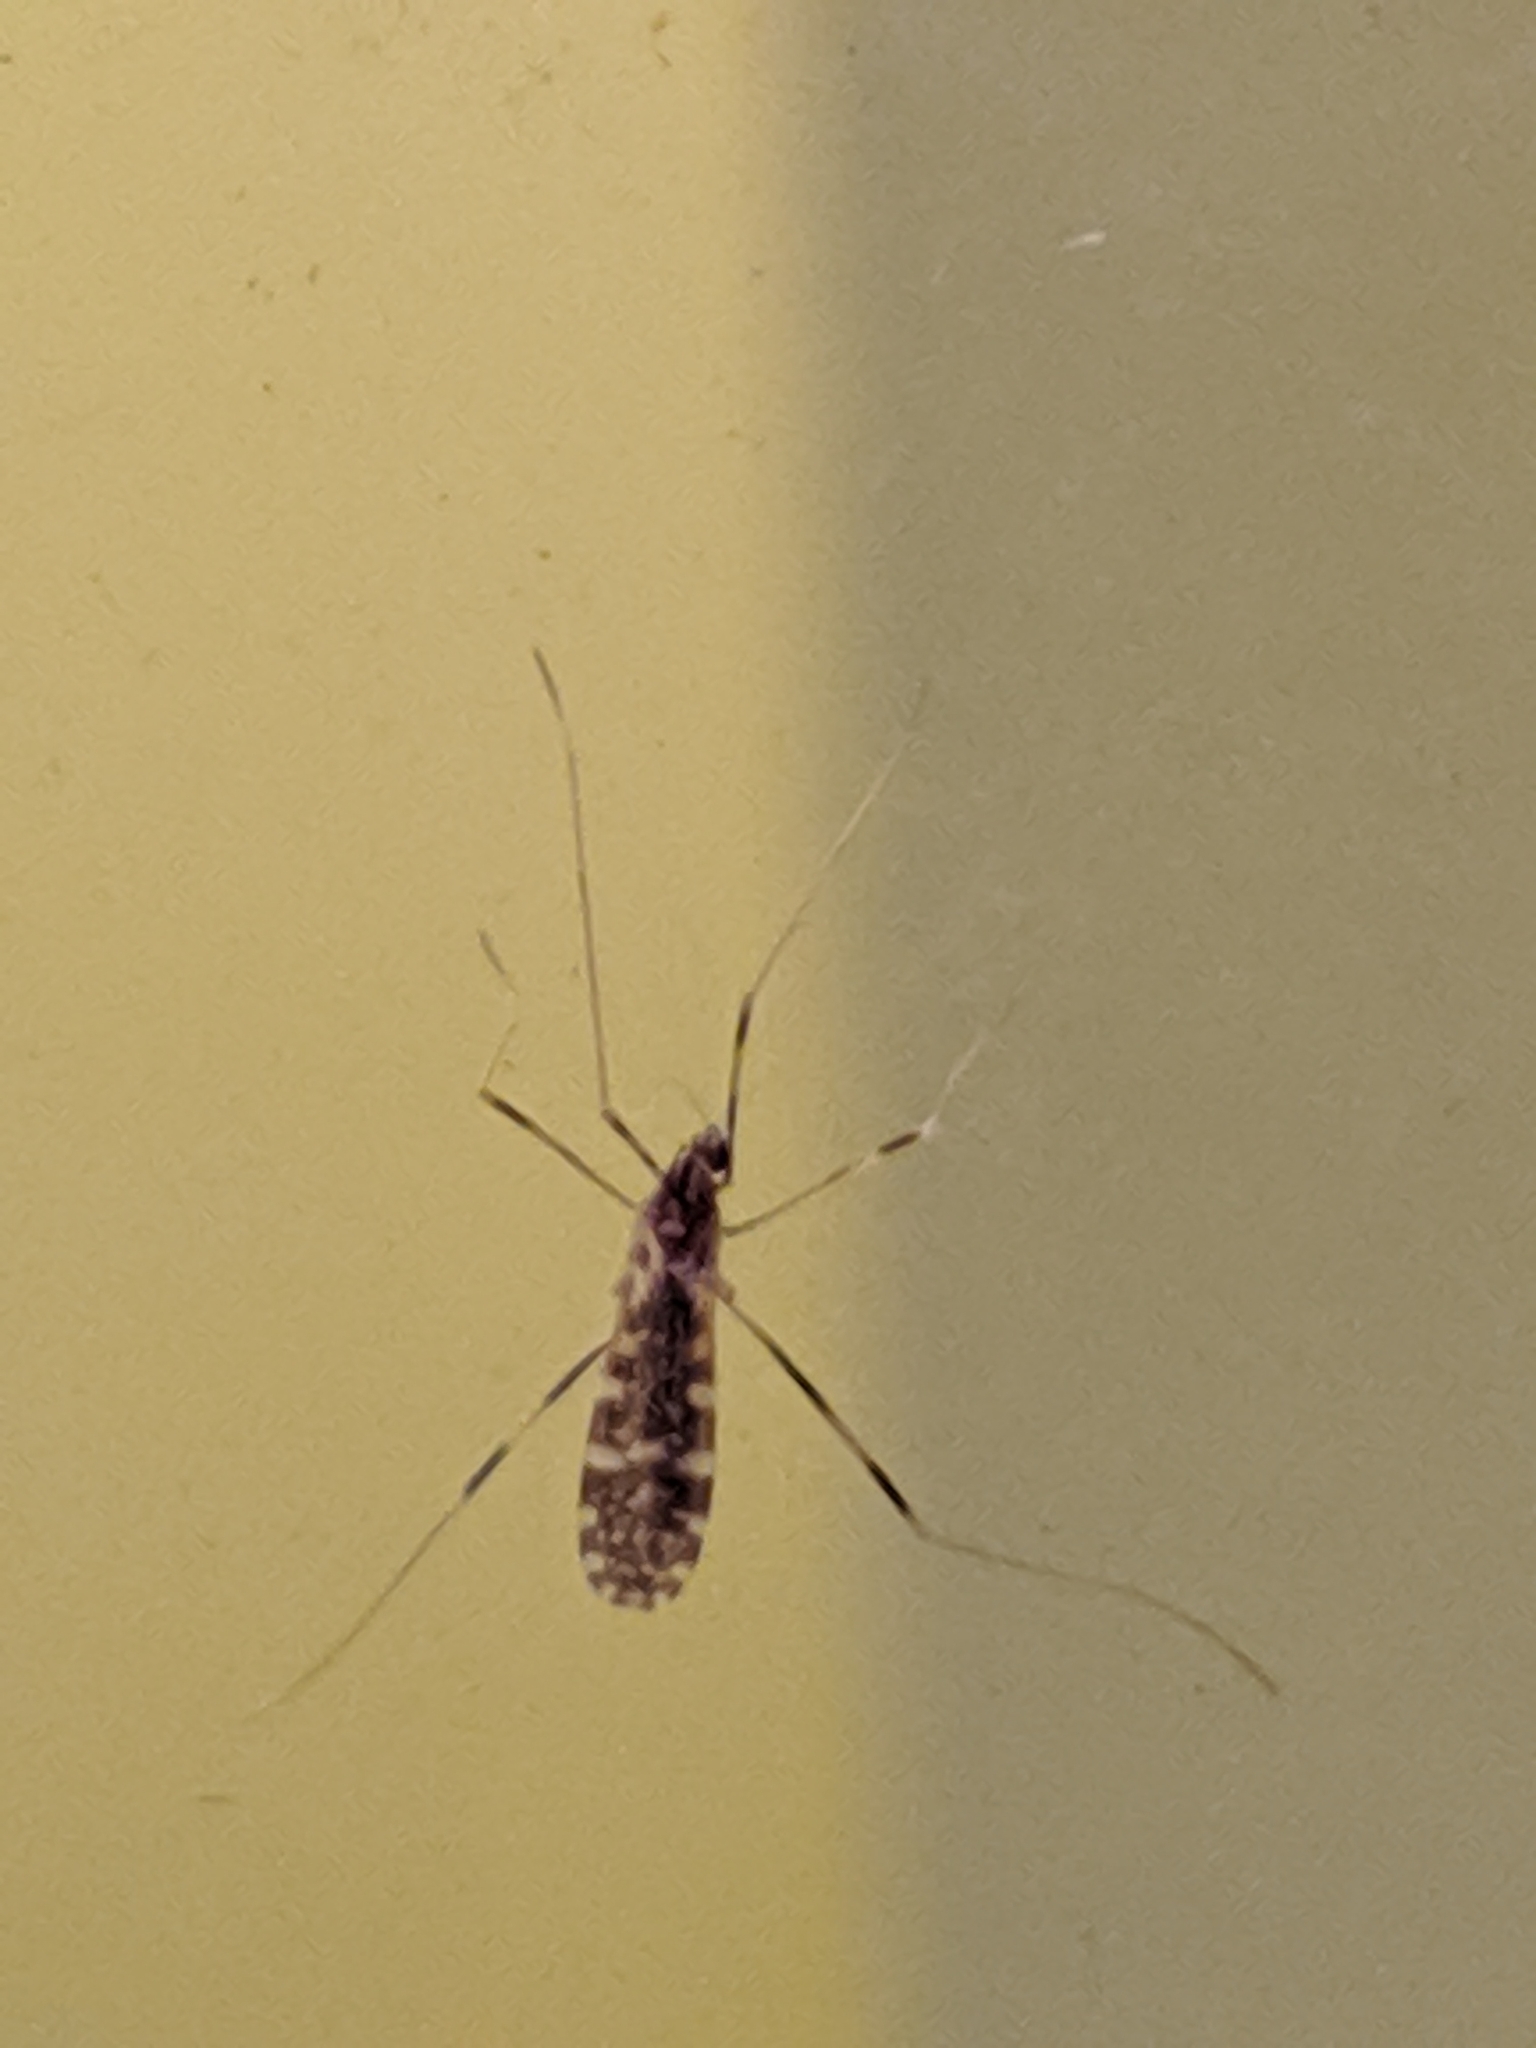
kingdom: Animalia
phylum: Arthropoda
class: Insecta
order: Diptera
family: Limoniidae
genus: Erioptera
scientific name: Erioptera caliptera
